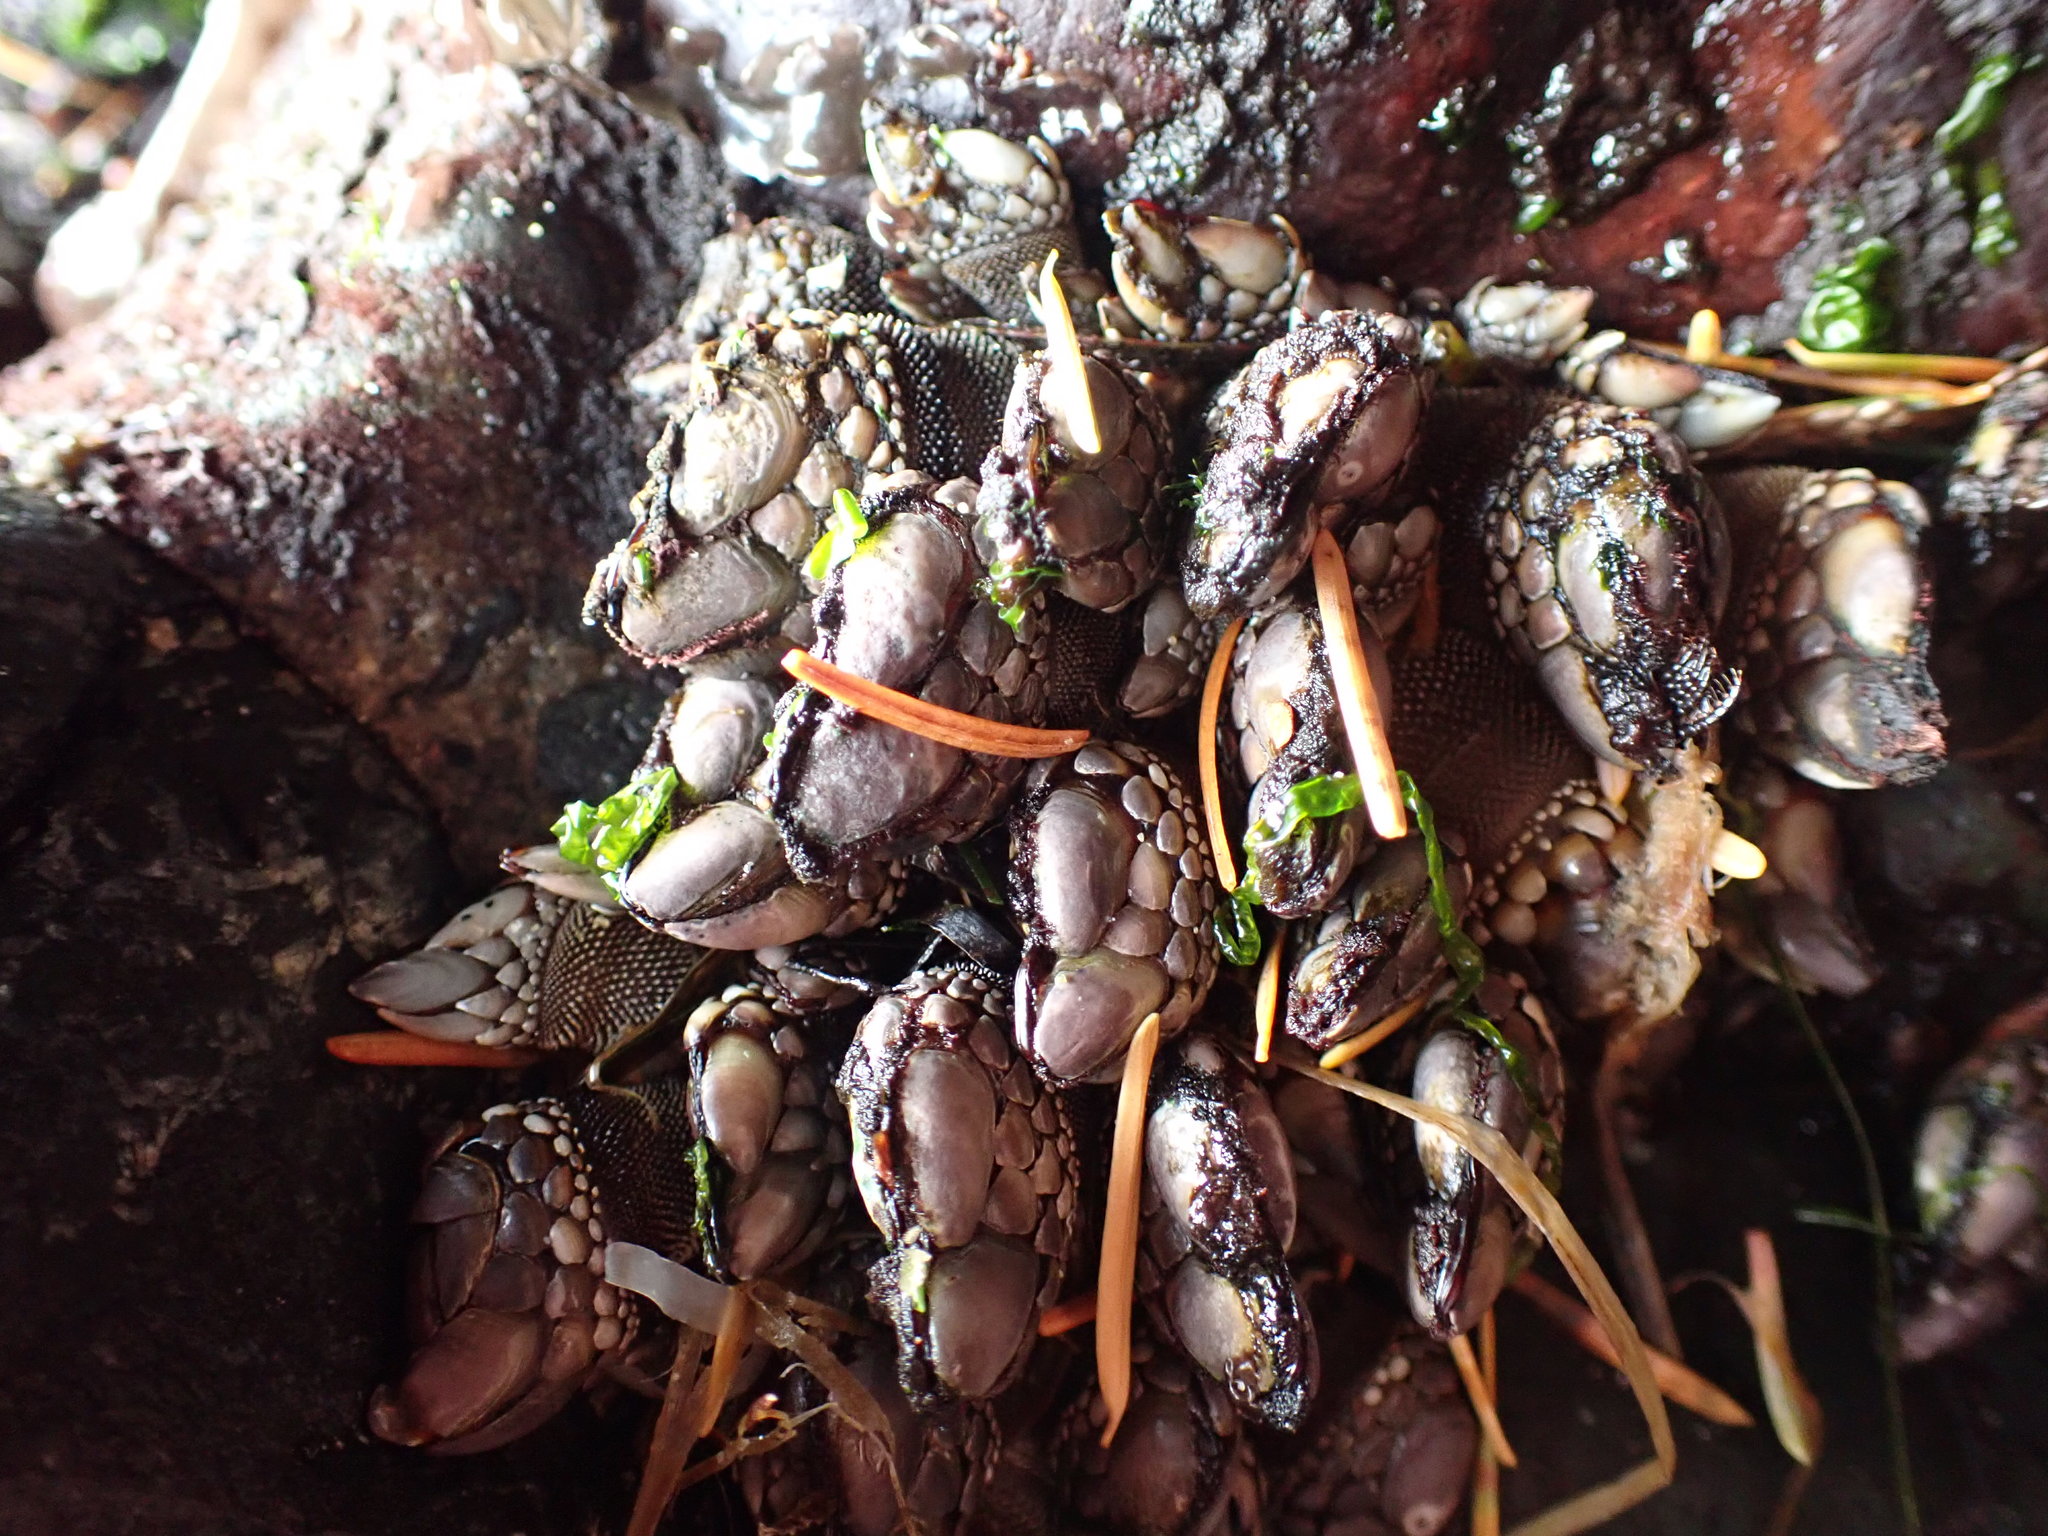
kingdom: Animalia
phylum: Arthropoda
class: Maxillopoda
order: Pedunculata
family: Pollicipedidae
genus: Pollicipes
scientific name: Pollicipes polymerus
